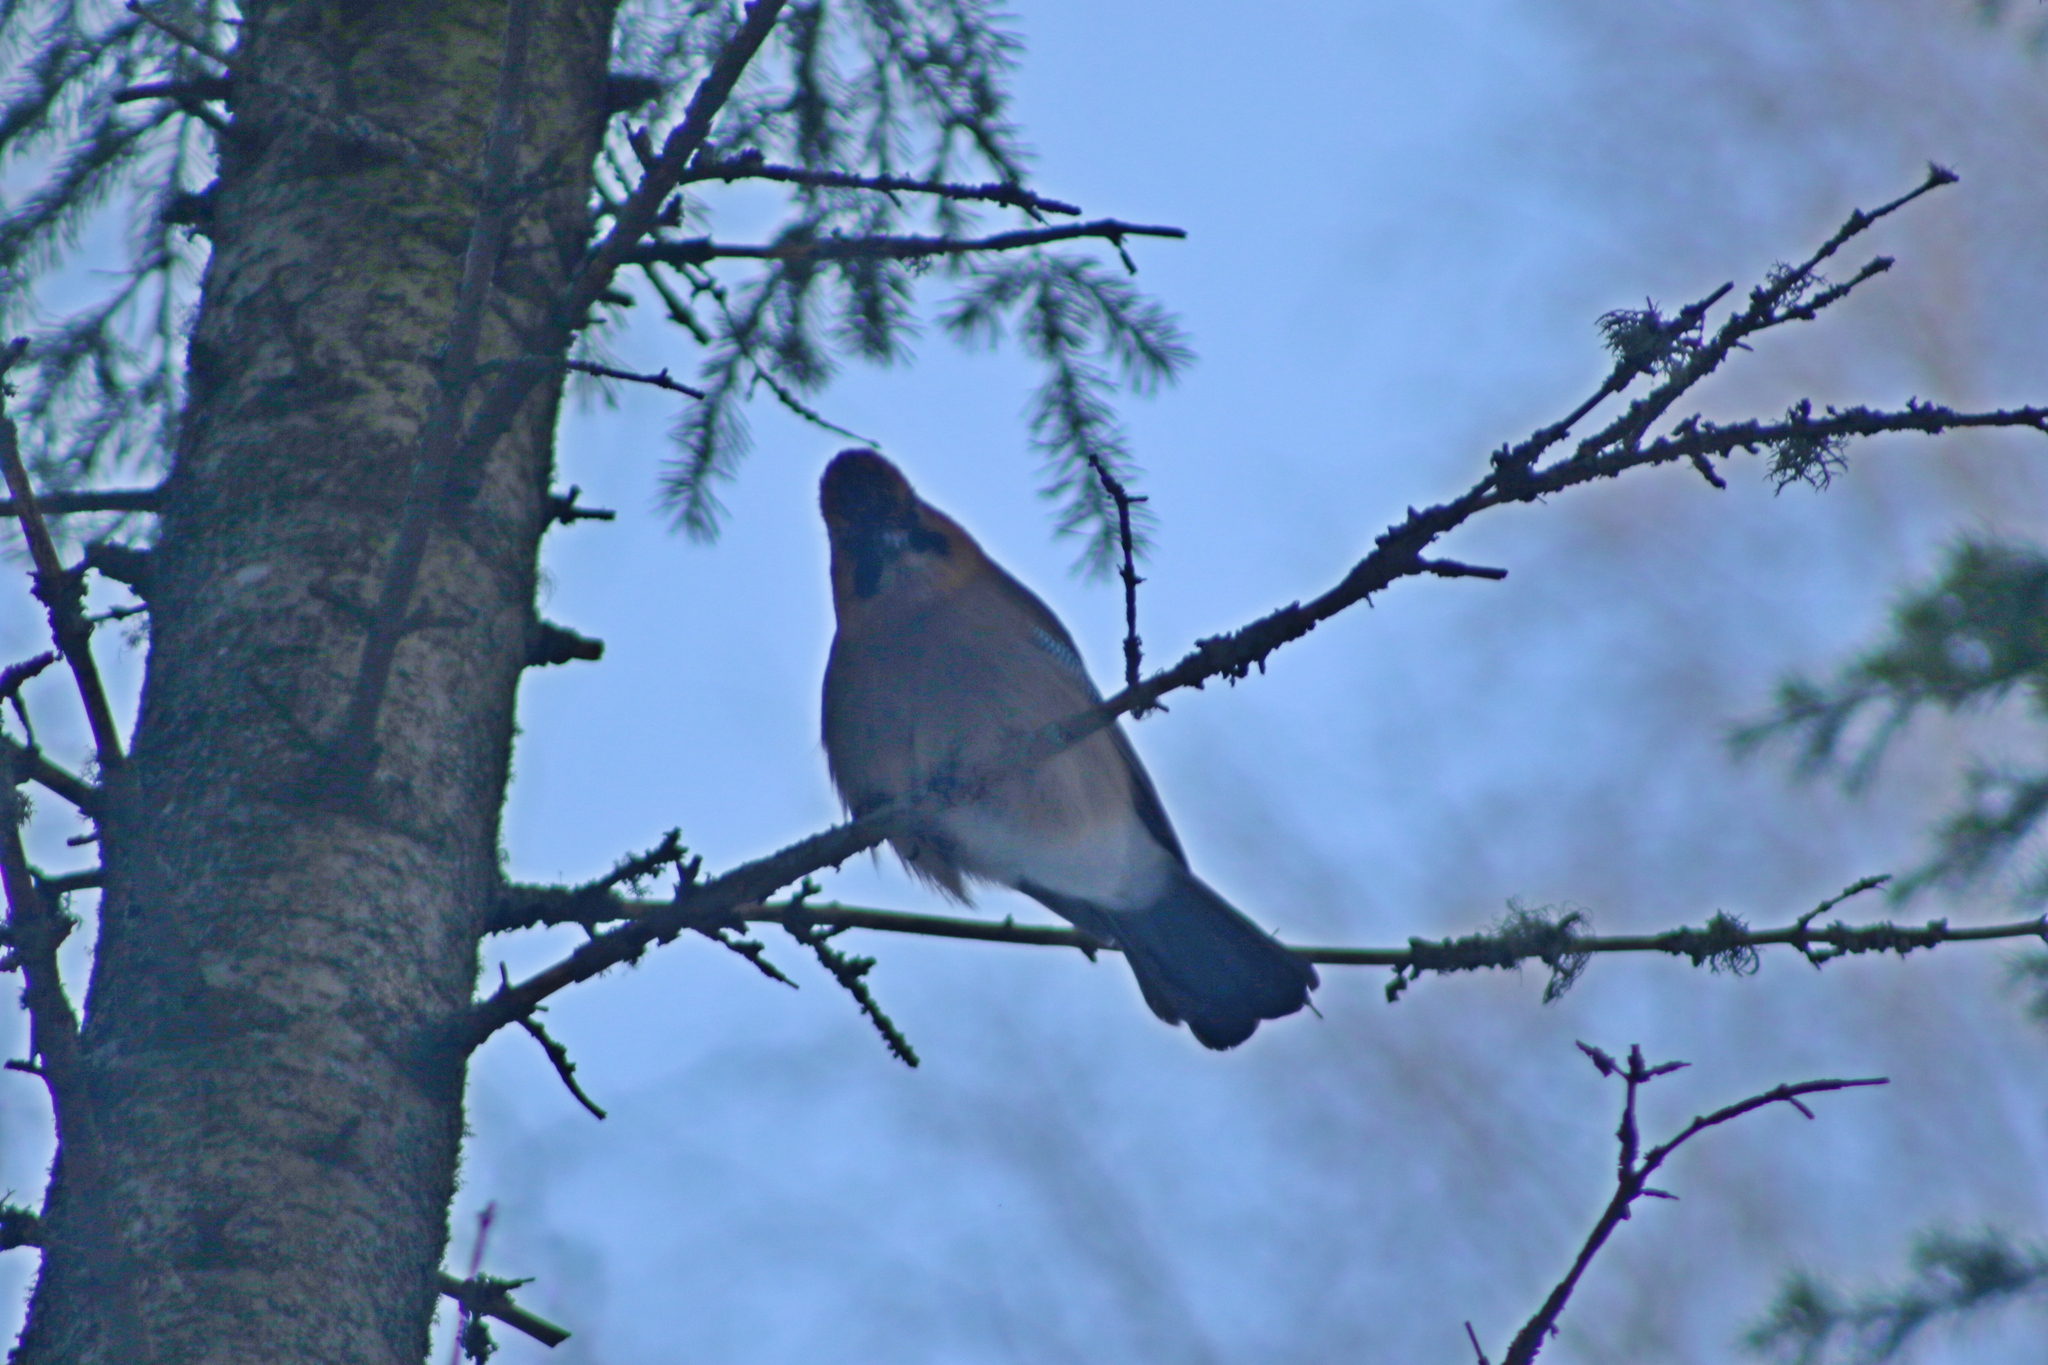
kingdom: Animalia
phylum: Chordata
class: Aves
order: Passeriformes
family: Corvidae
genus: Garrulus
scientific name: Garrulus glandarius
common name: Eurasian jay
